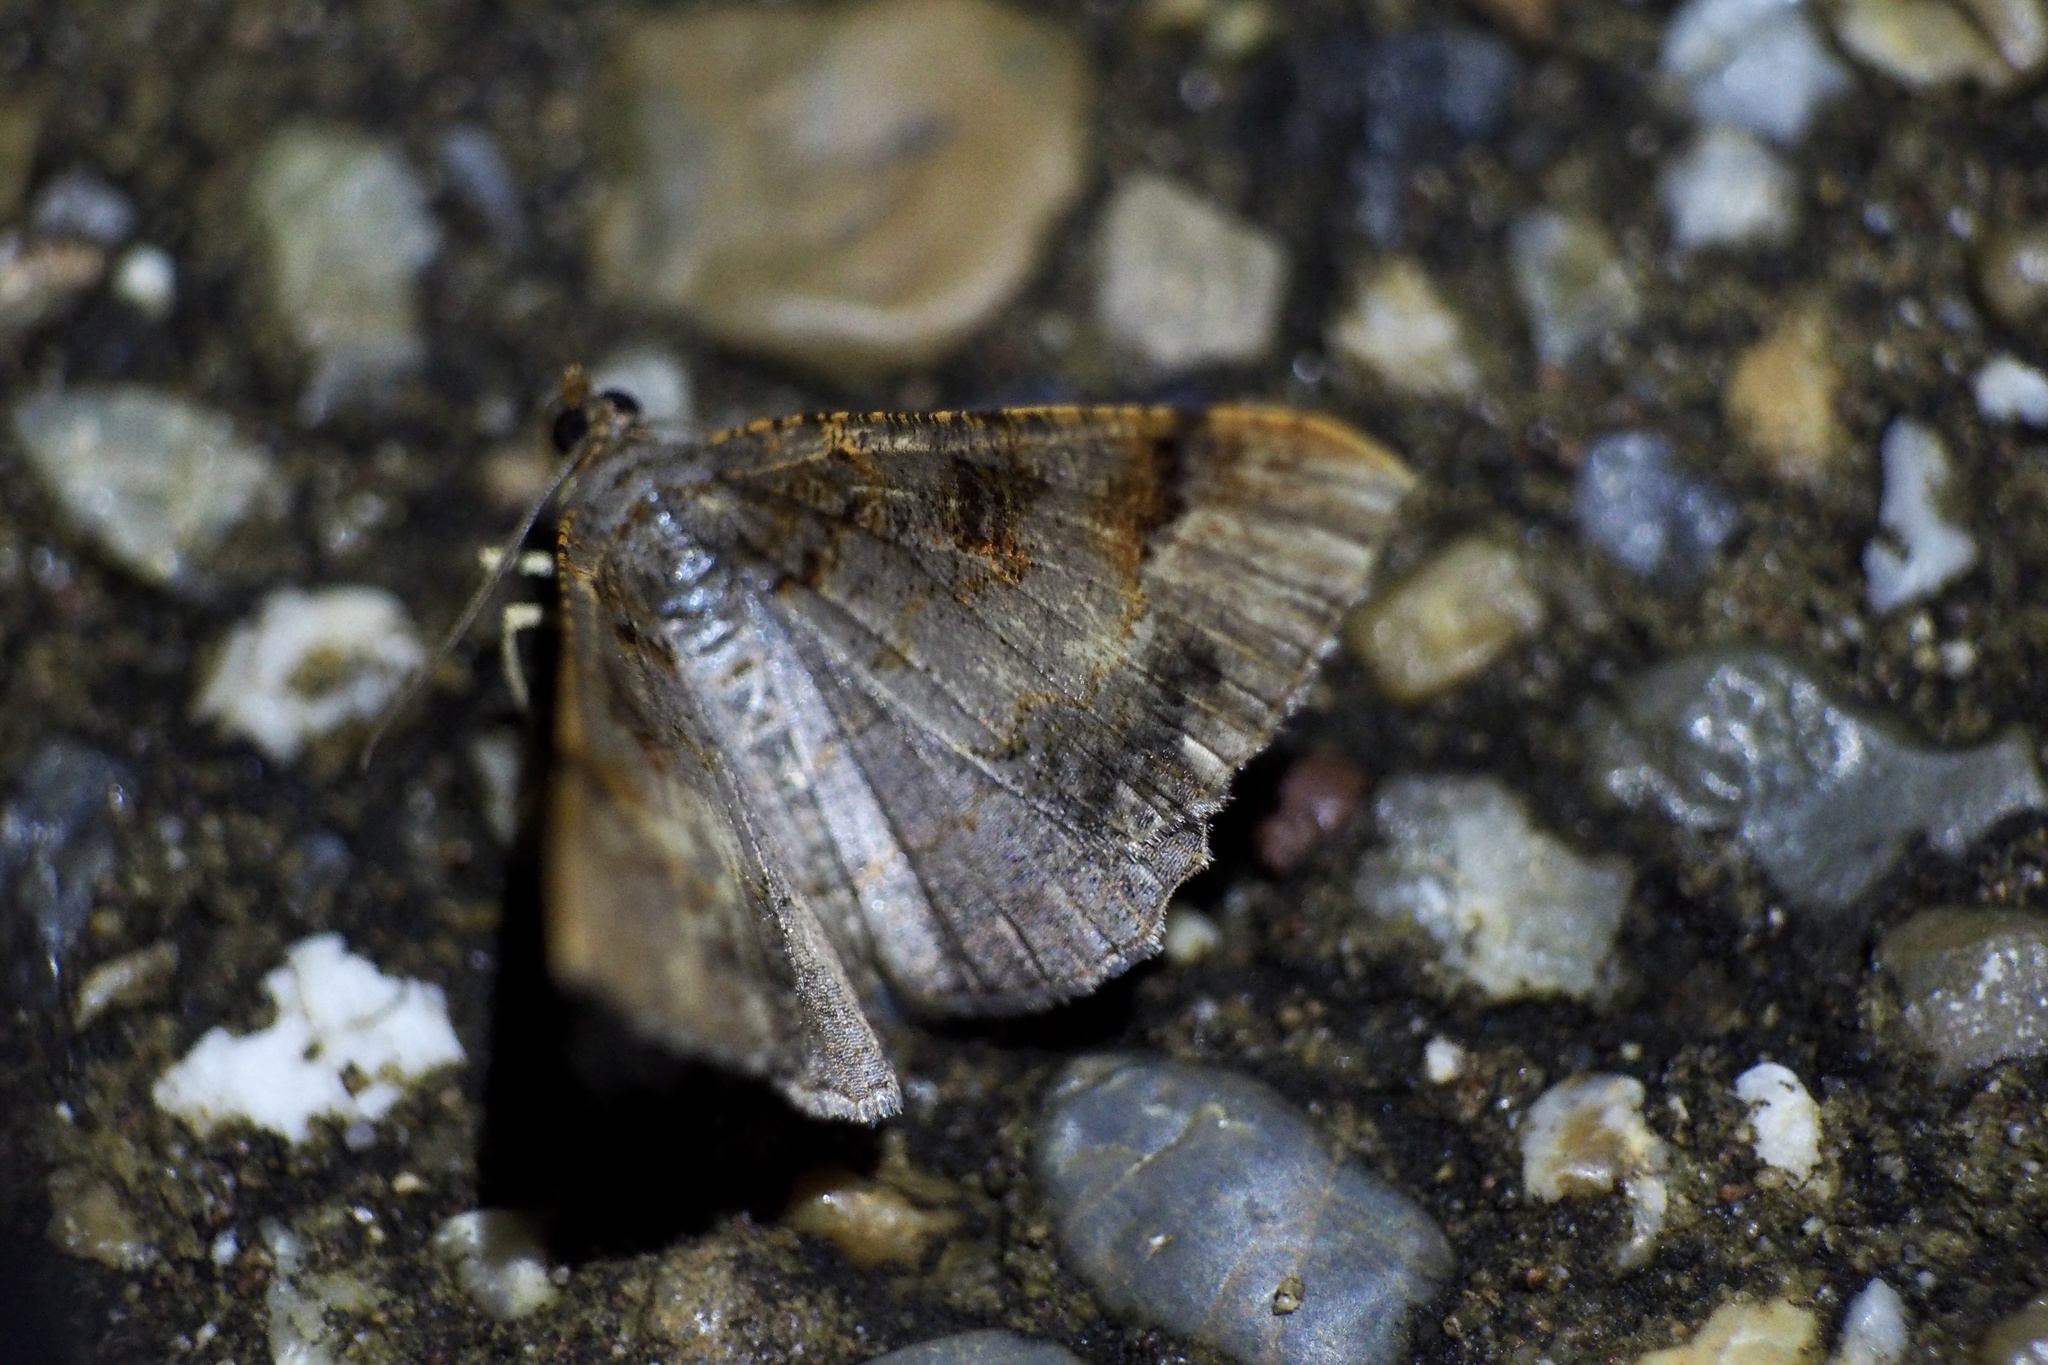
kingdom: Animalia
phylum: Arthropoda
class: Insecta
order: Lepidoptera
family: Geometridae
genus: Hypephyra
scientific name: Hypephyra terrosa
